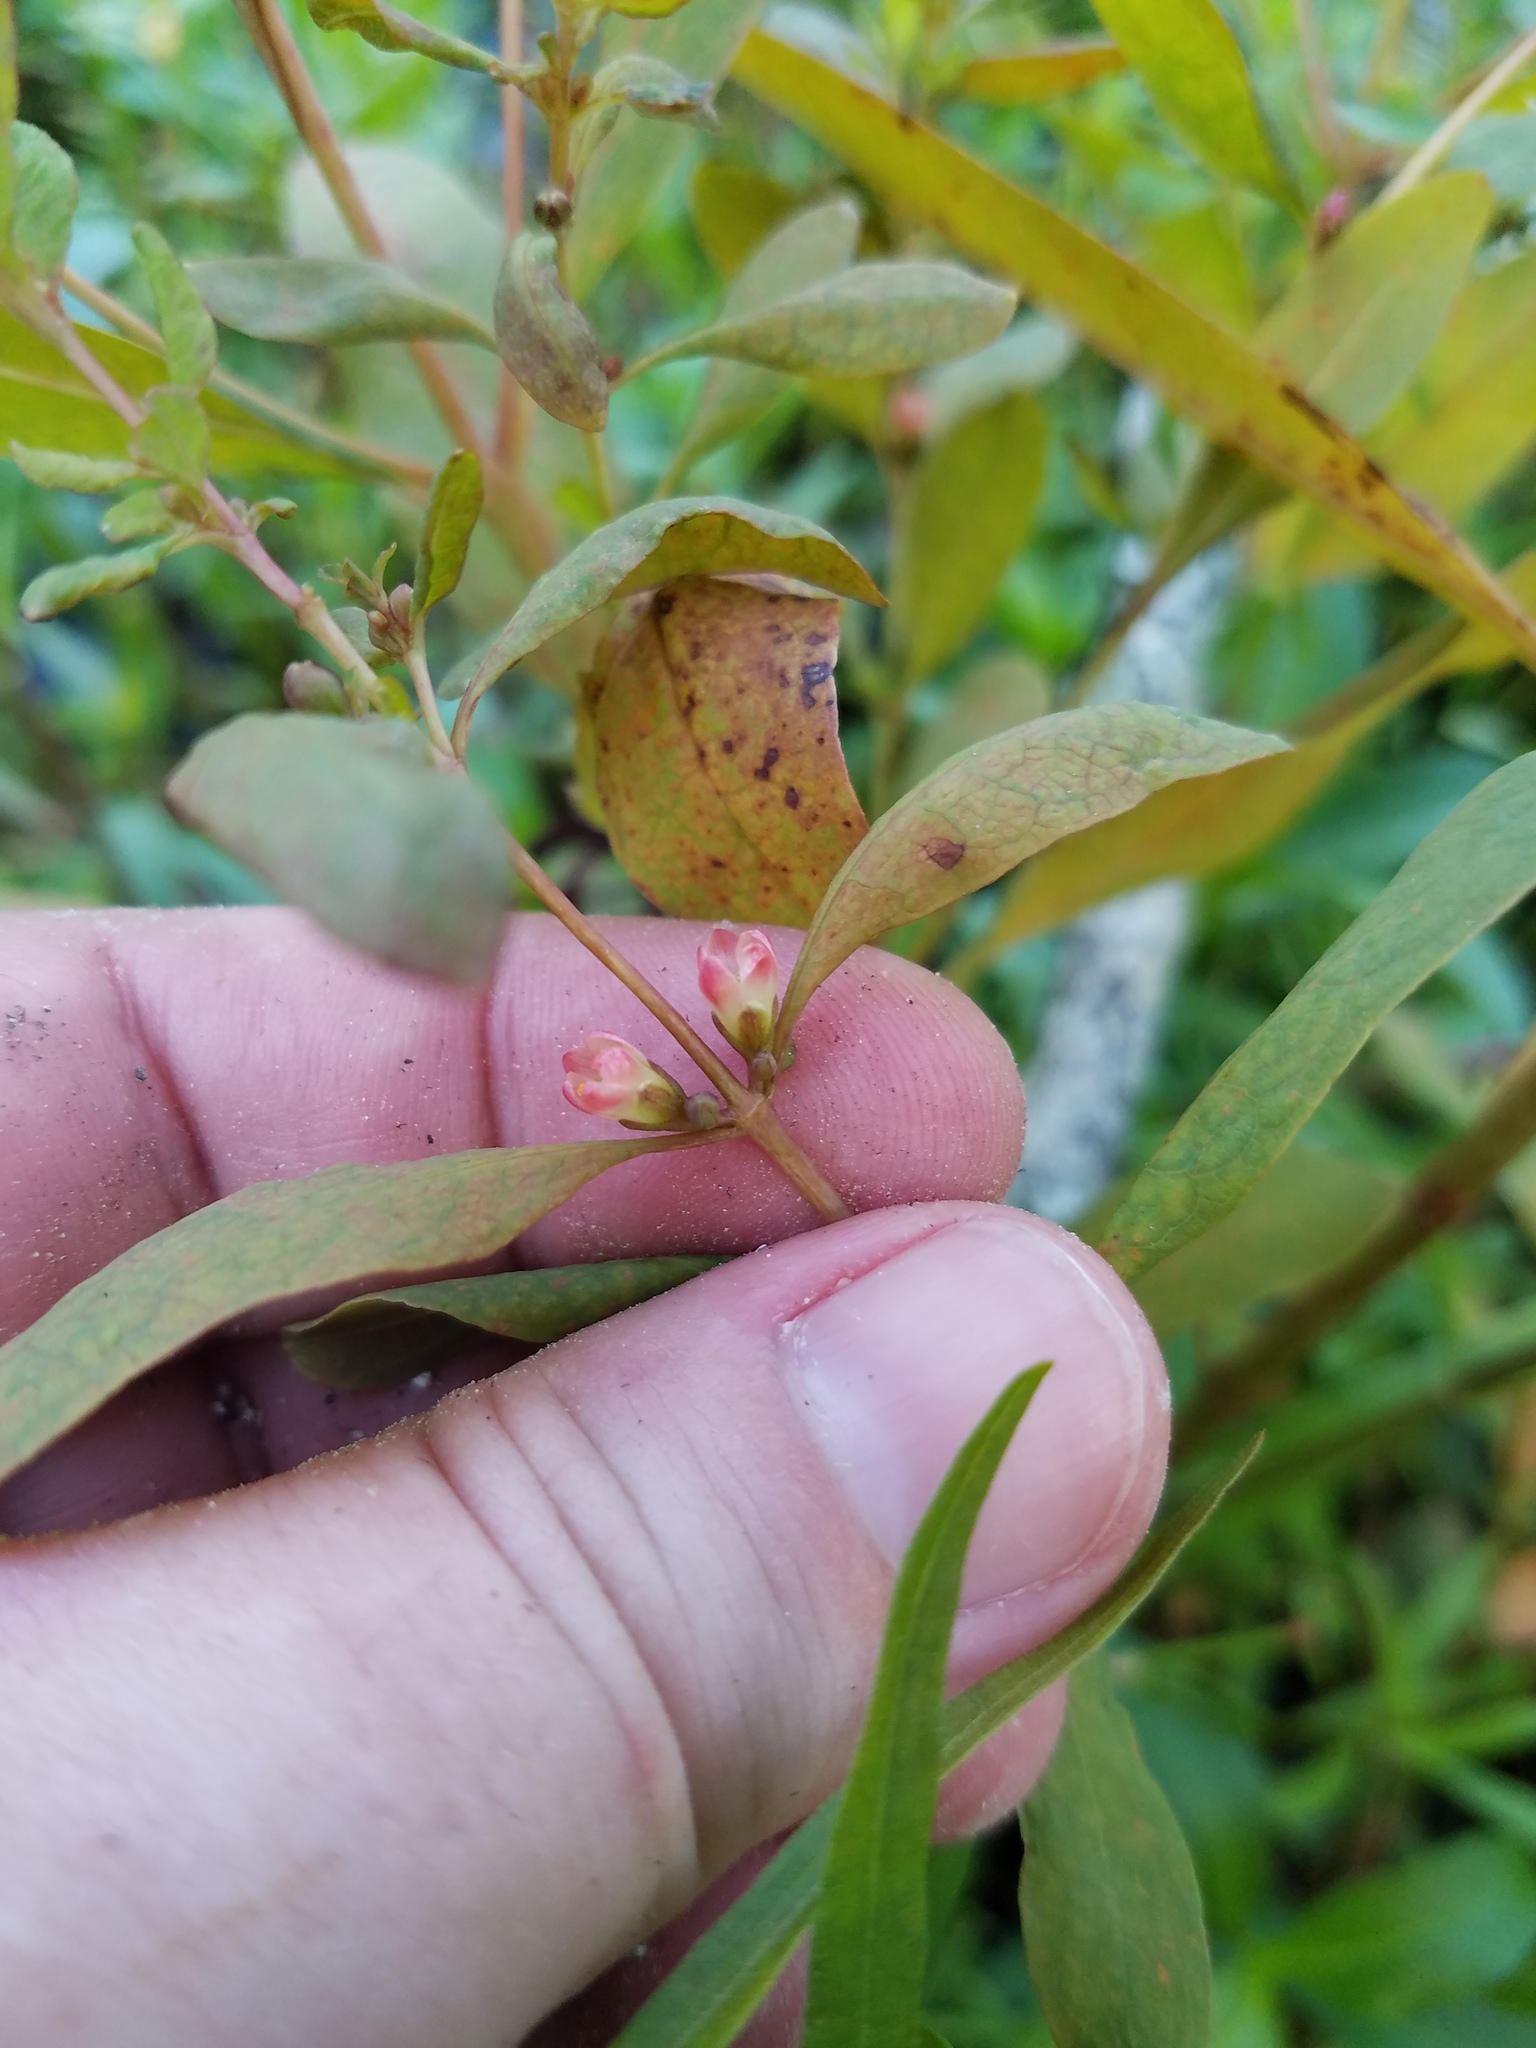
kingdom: Plantae
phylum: Tracheophyta
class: Magnoliopsida
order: Malpighiales
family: Hypericaceae
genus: Triadenum
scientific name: Triadenum walteri
